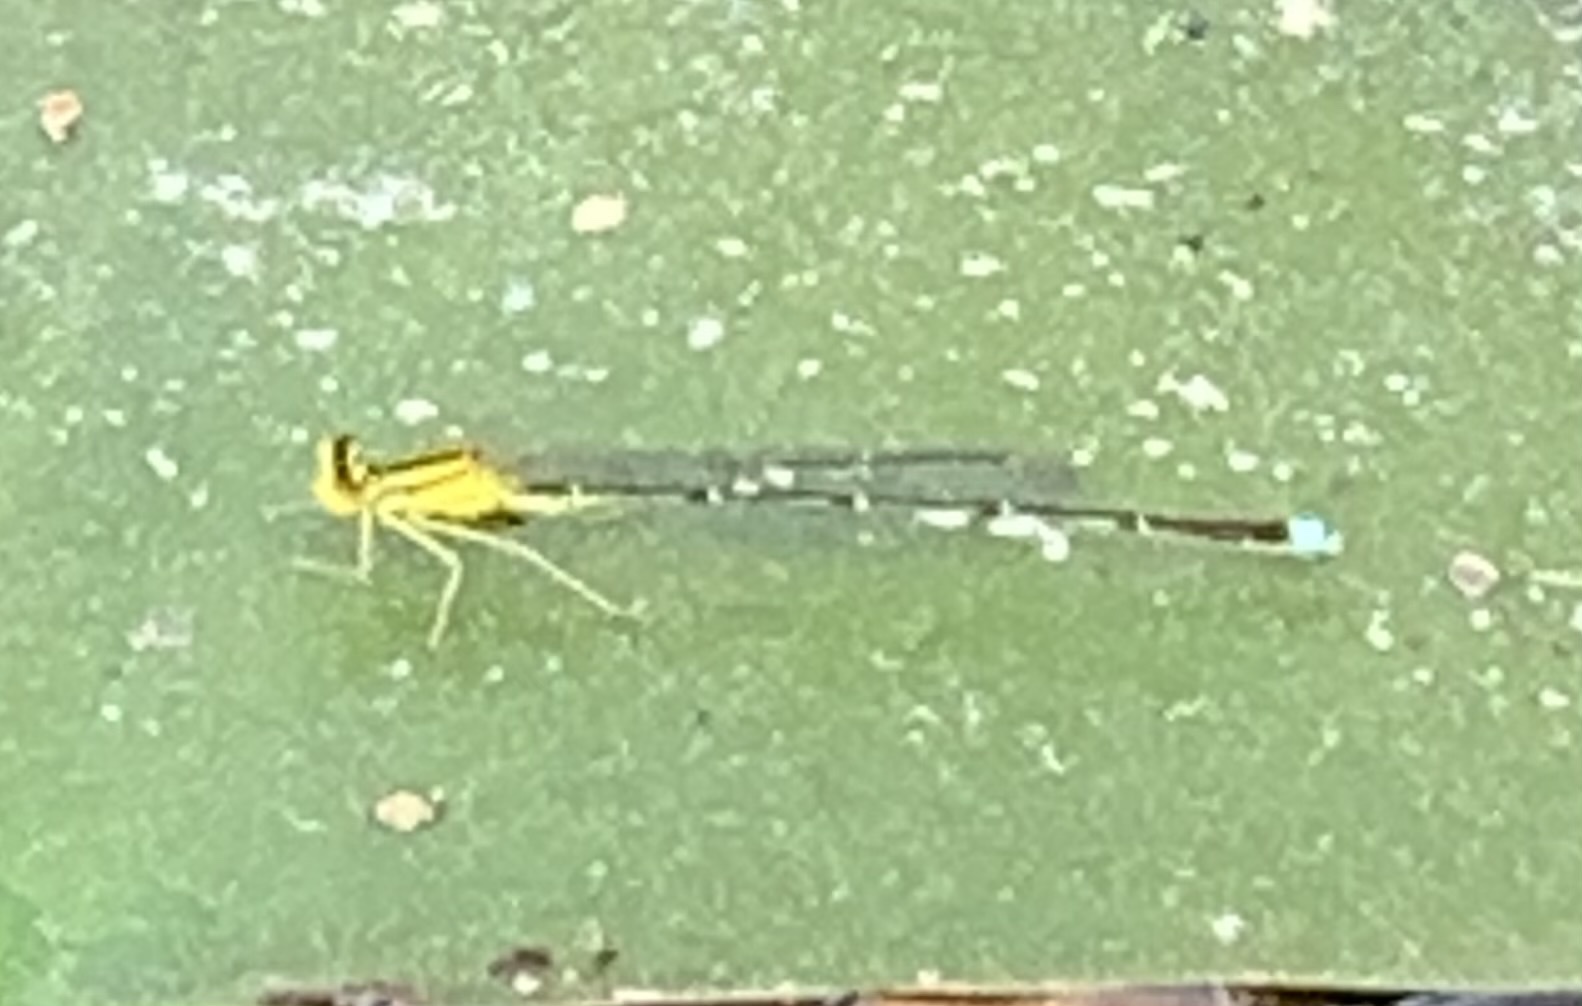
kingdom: Animalia
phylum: Arthropoda
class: Insecta
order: Odonata
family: Coenagrionidae
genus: Enallagma
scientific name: Enallagma vesperum
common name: Vesper bluet
